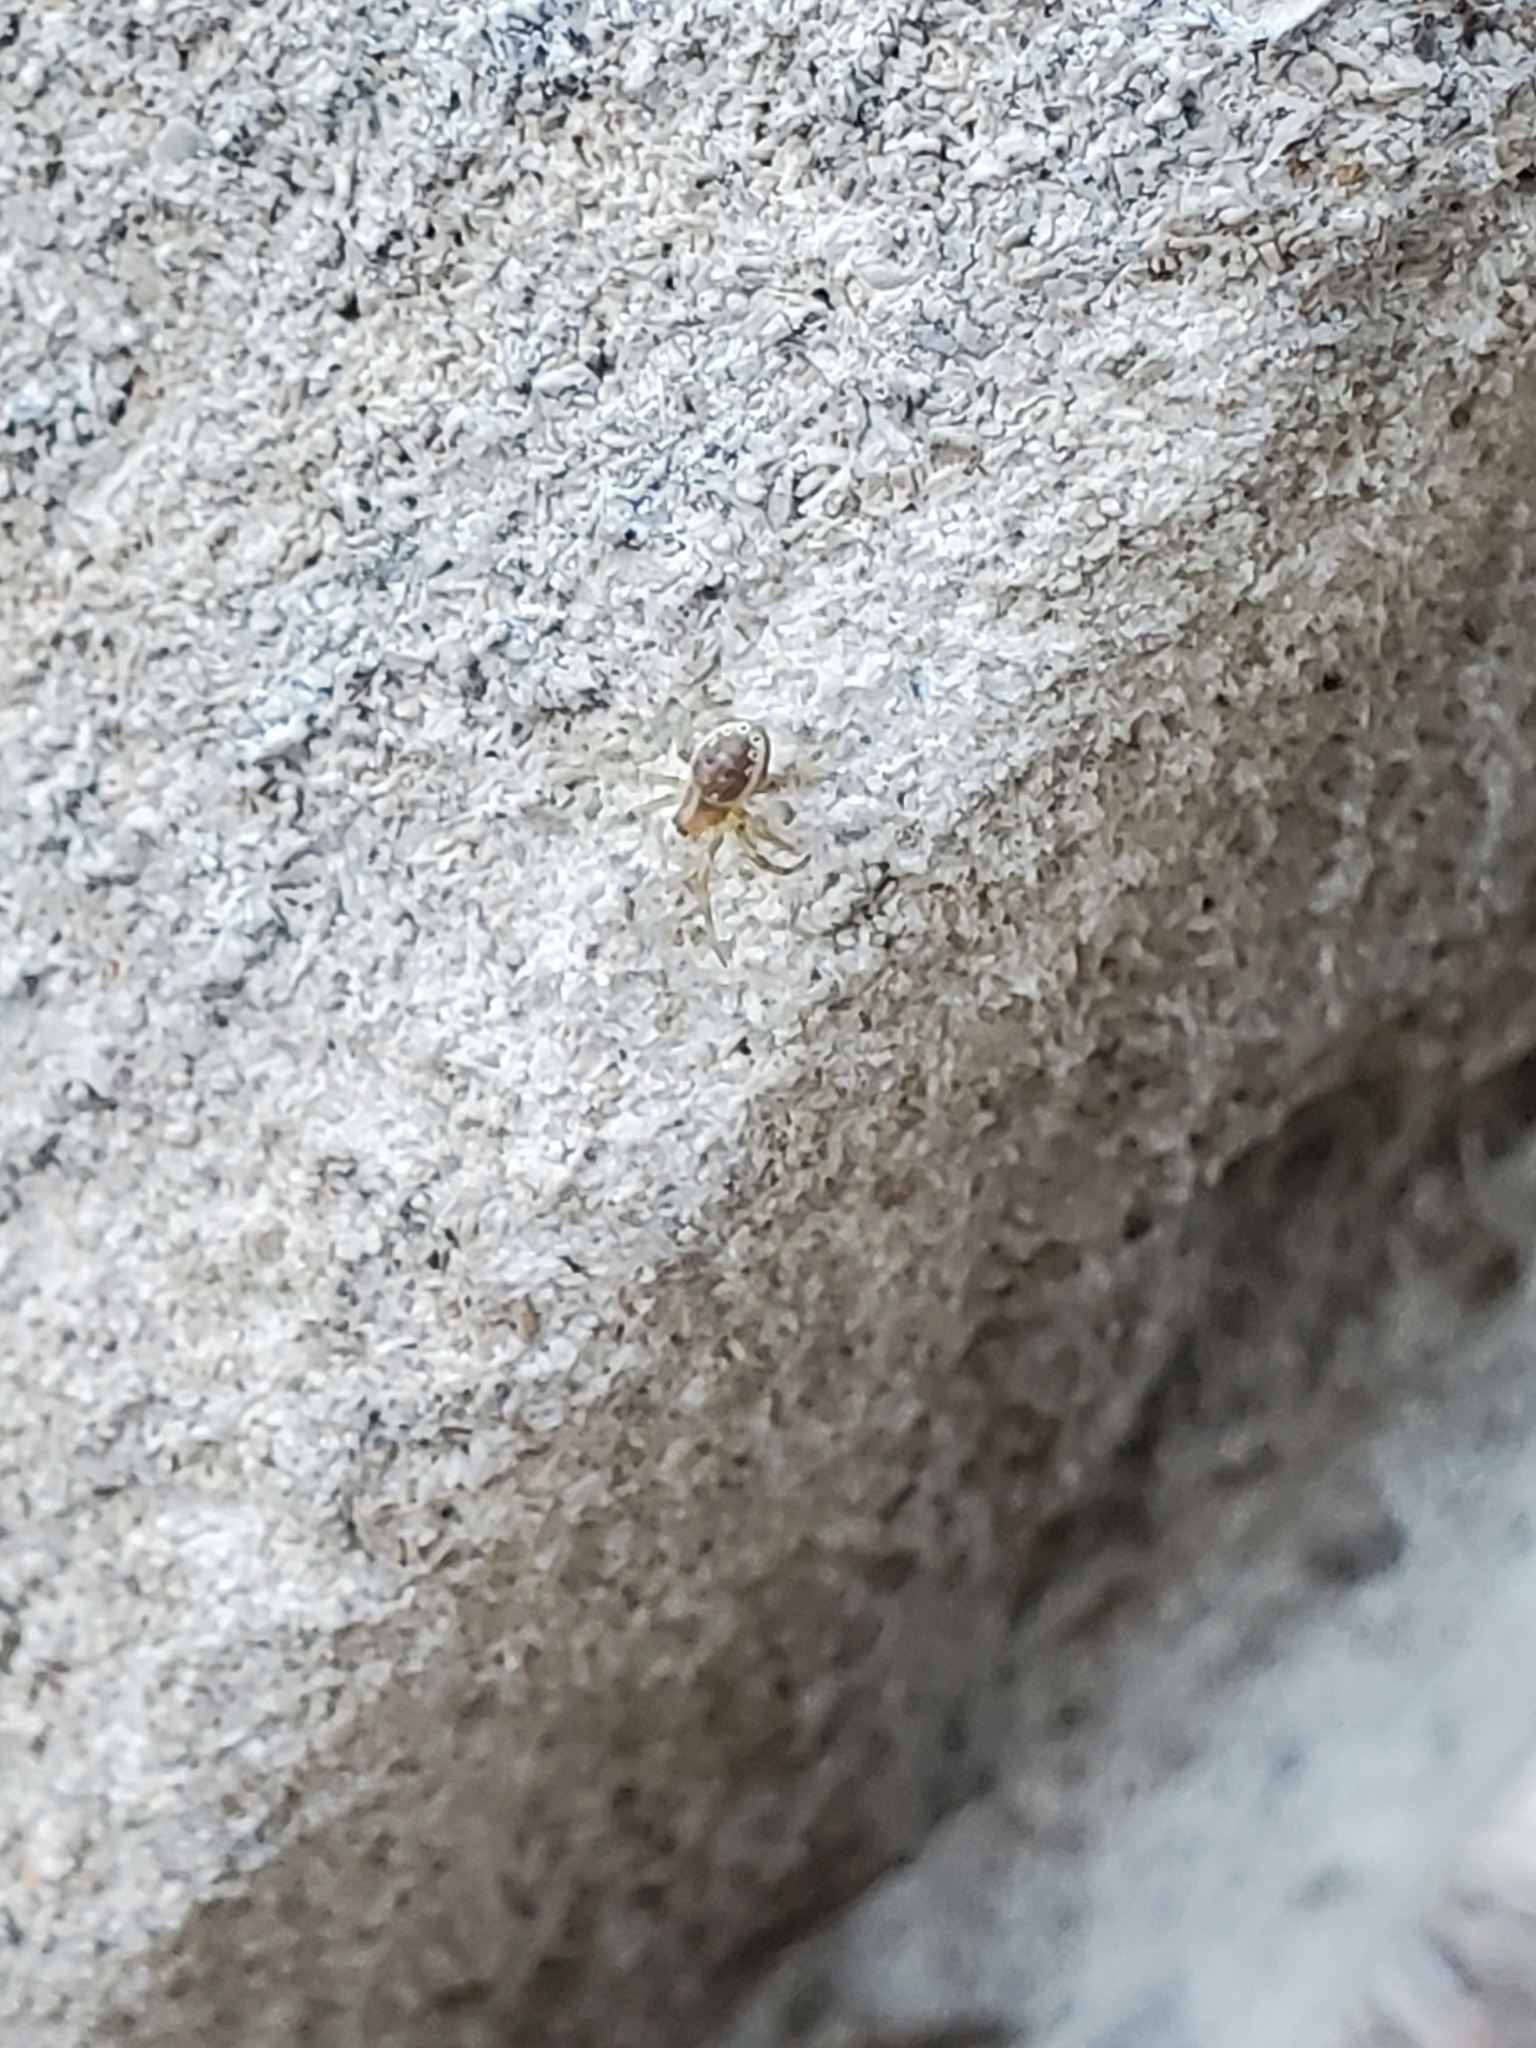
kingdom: Animalia
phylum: Arthropoda
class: Arachnida
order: Araneae
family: Araneidae
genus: Araniella
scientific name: Araniella displicata
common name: Sixspotted orb weaver
